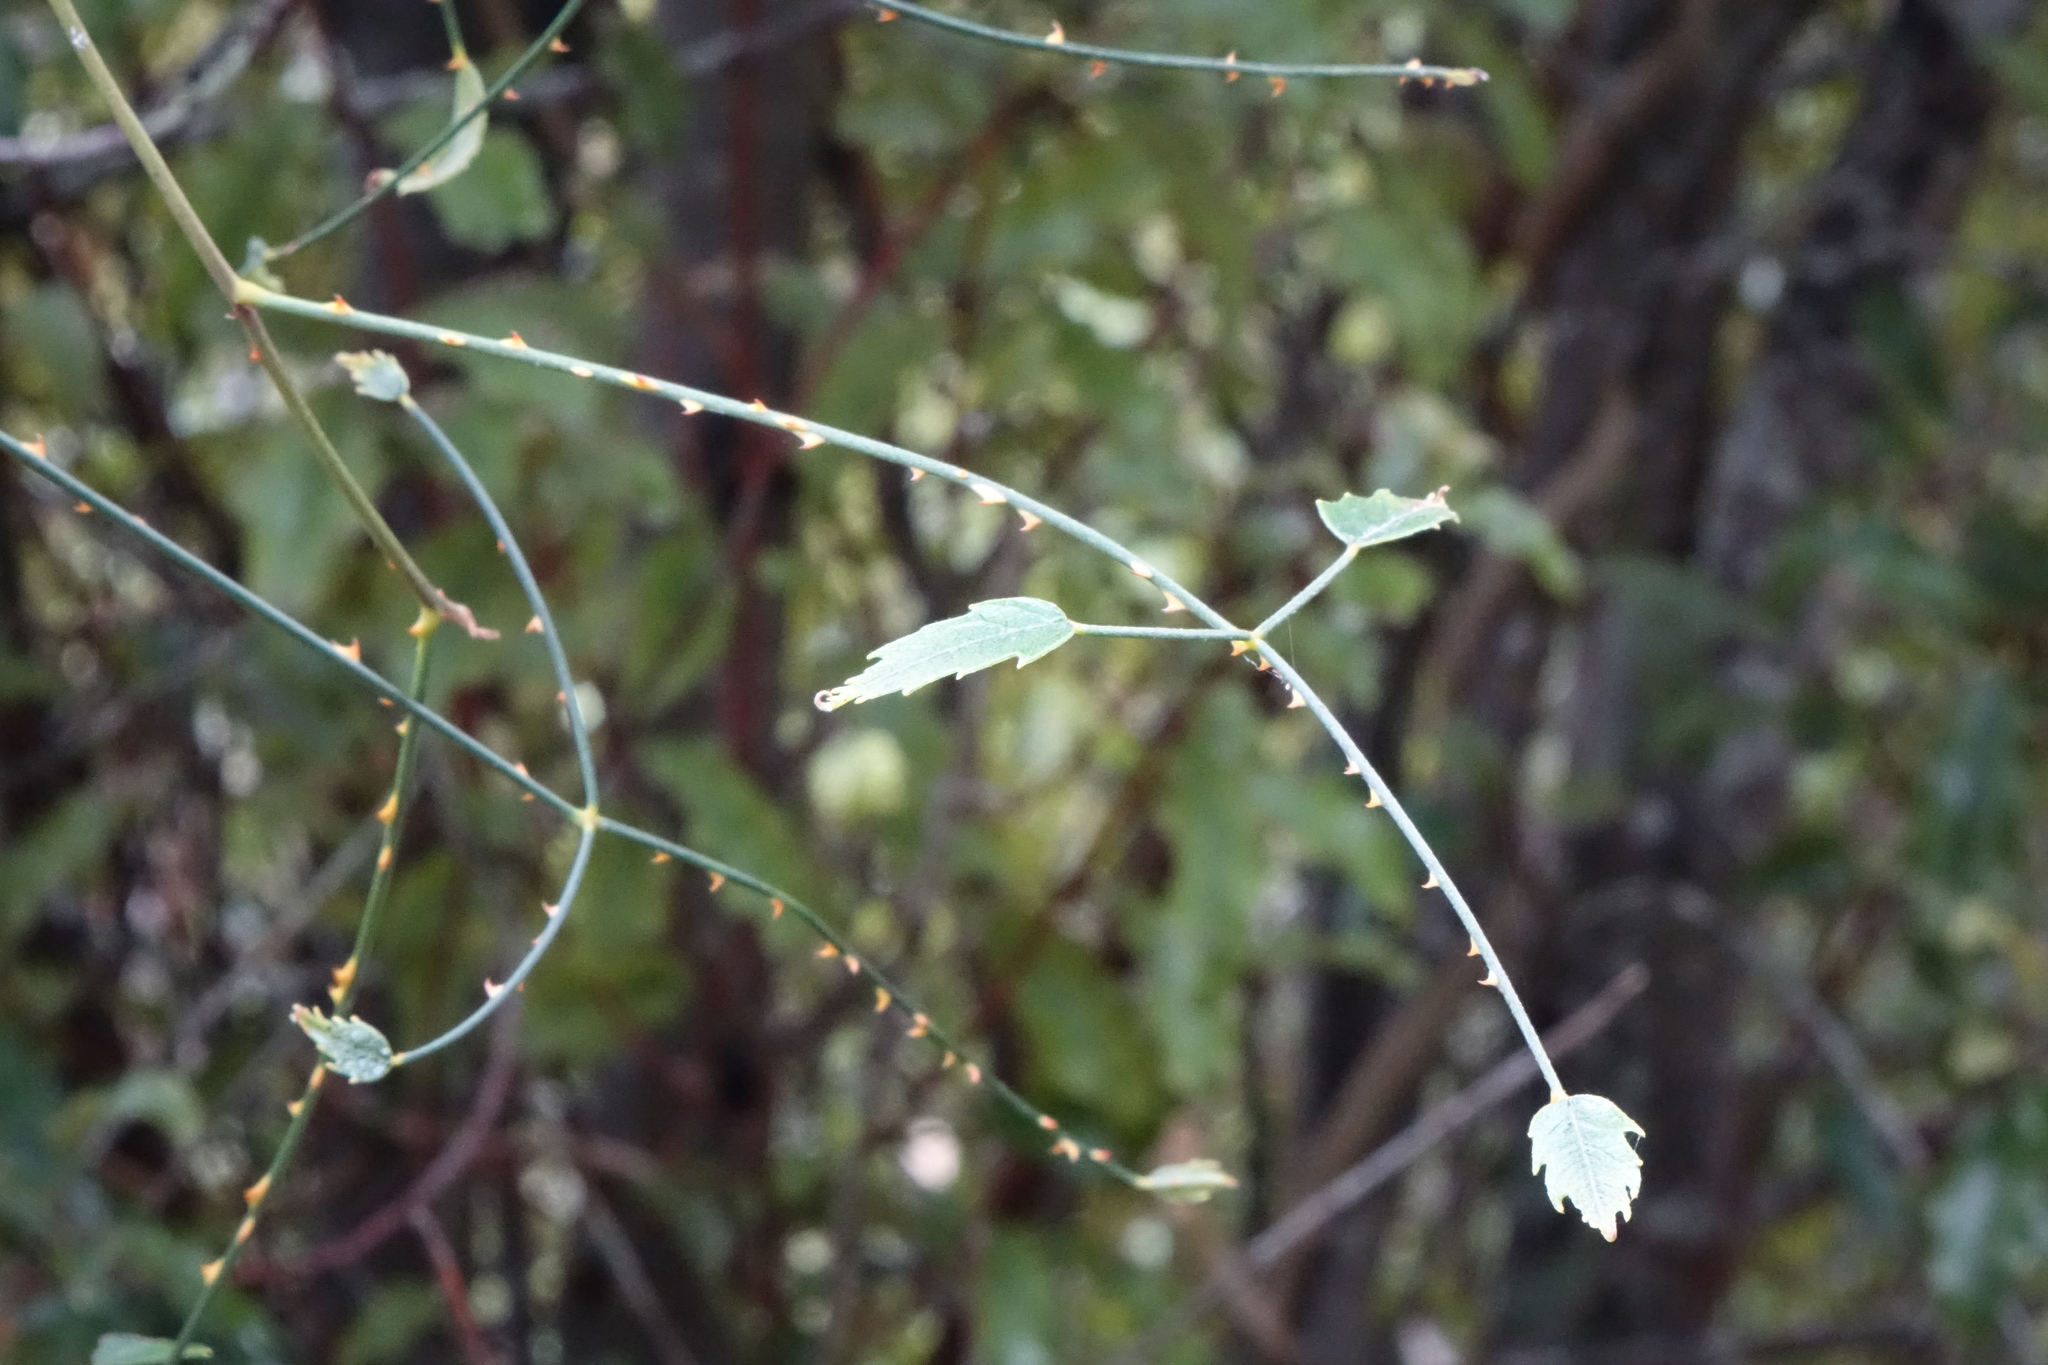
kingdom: Plantae
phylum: Tracheophyta
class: Magnoliopsida
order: Rosales
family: Rosaceae
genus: Rubus
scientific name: Rubus squarrosus
